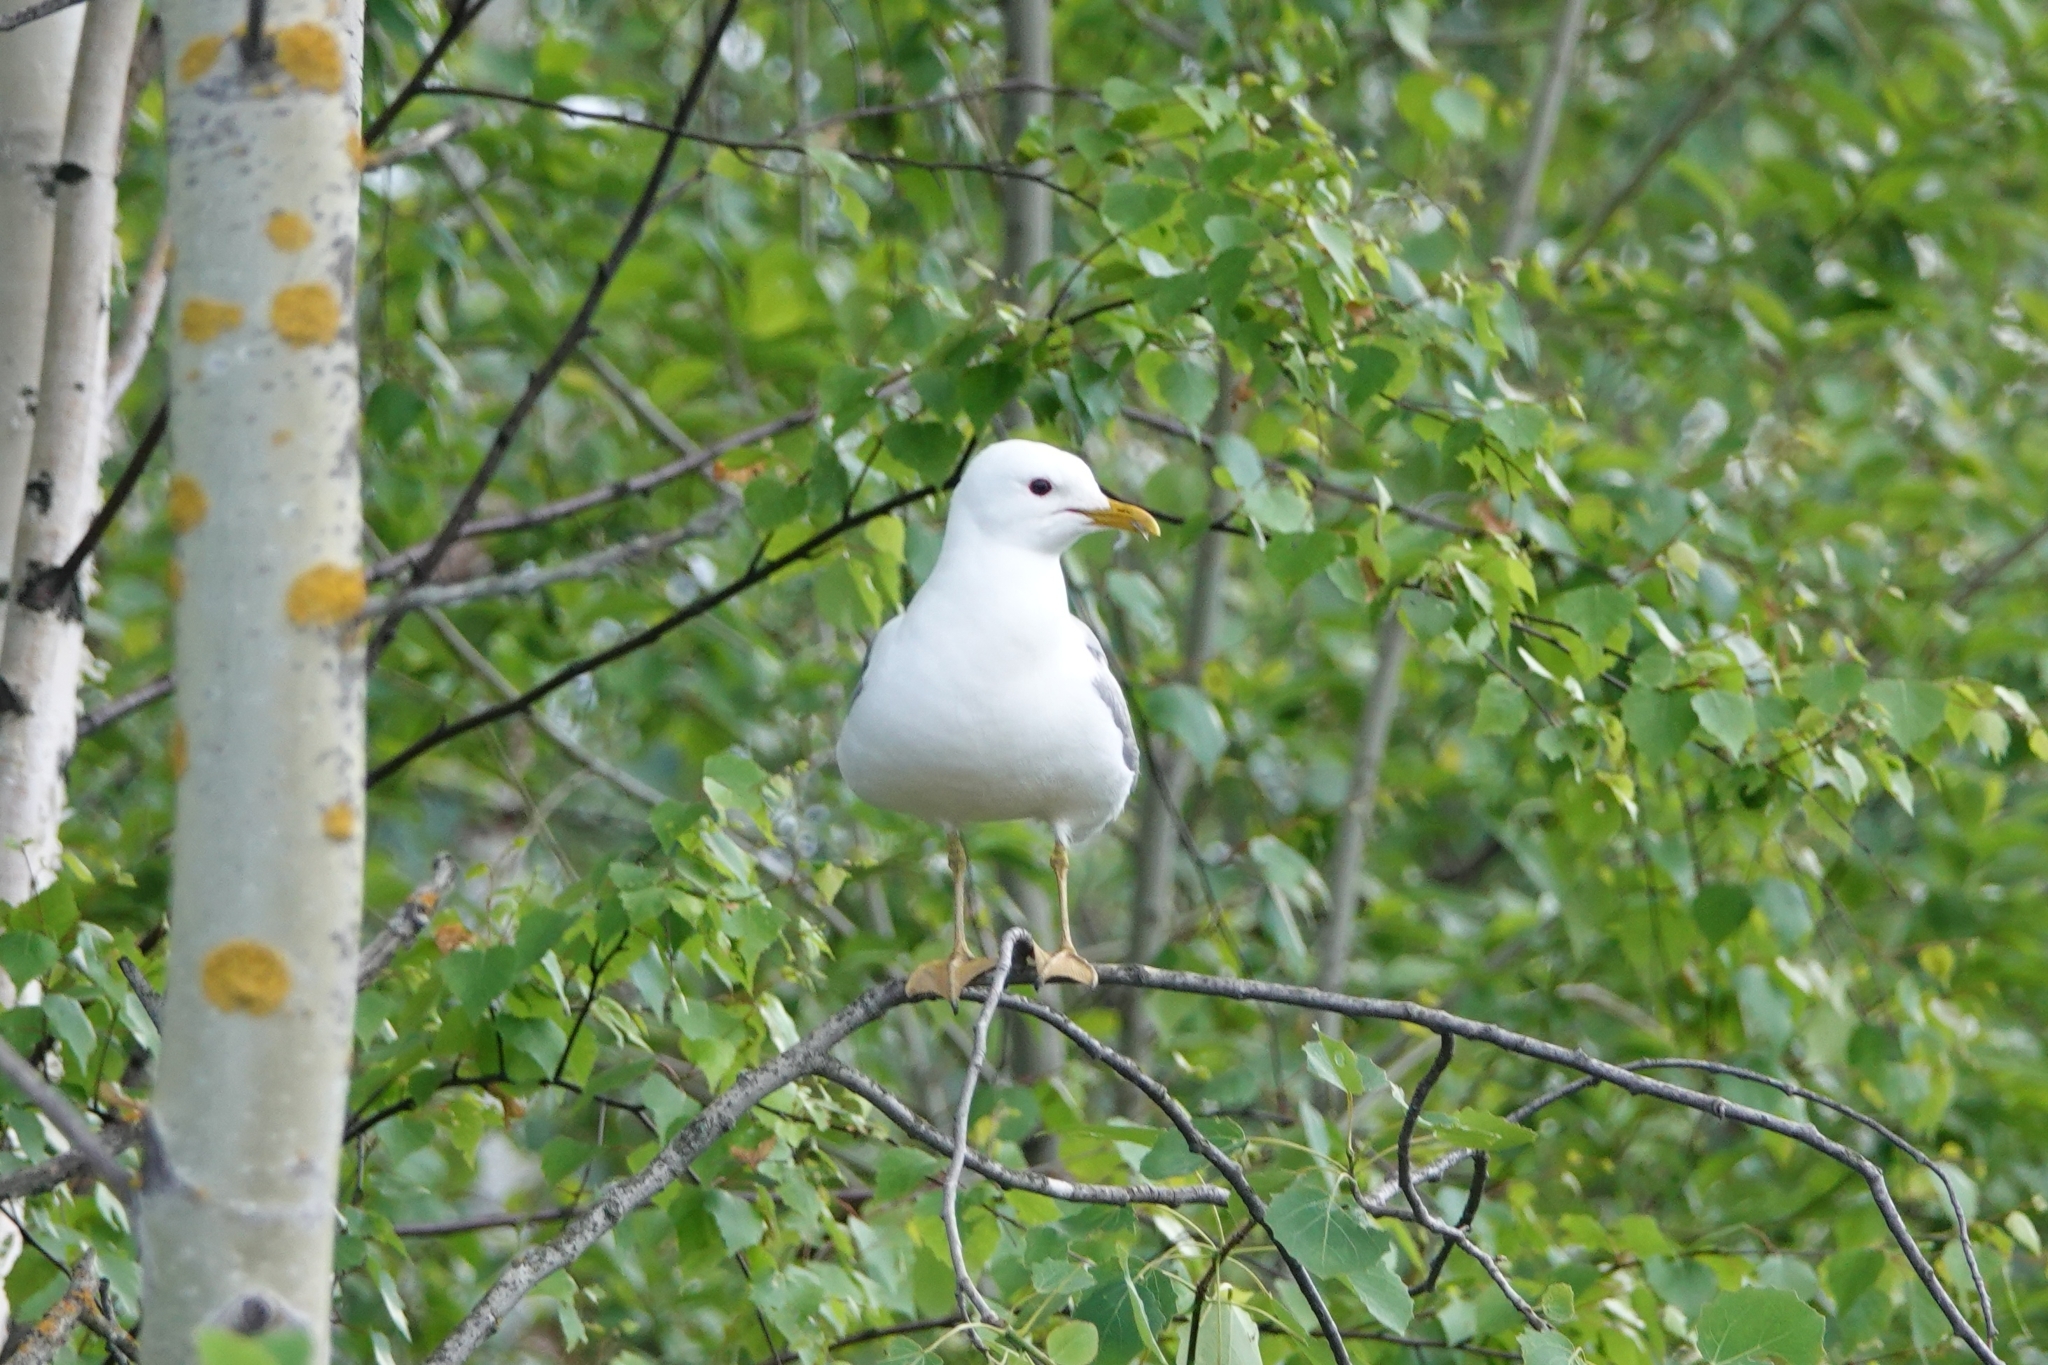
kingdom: Animalia
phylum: Chordata
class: Aves
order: Charadriiformes
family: Laridae
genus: Larus
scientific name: Larus canus
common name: Mew gull
